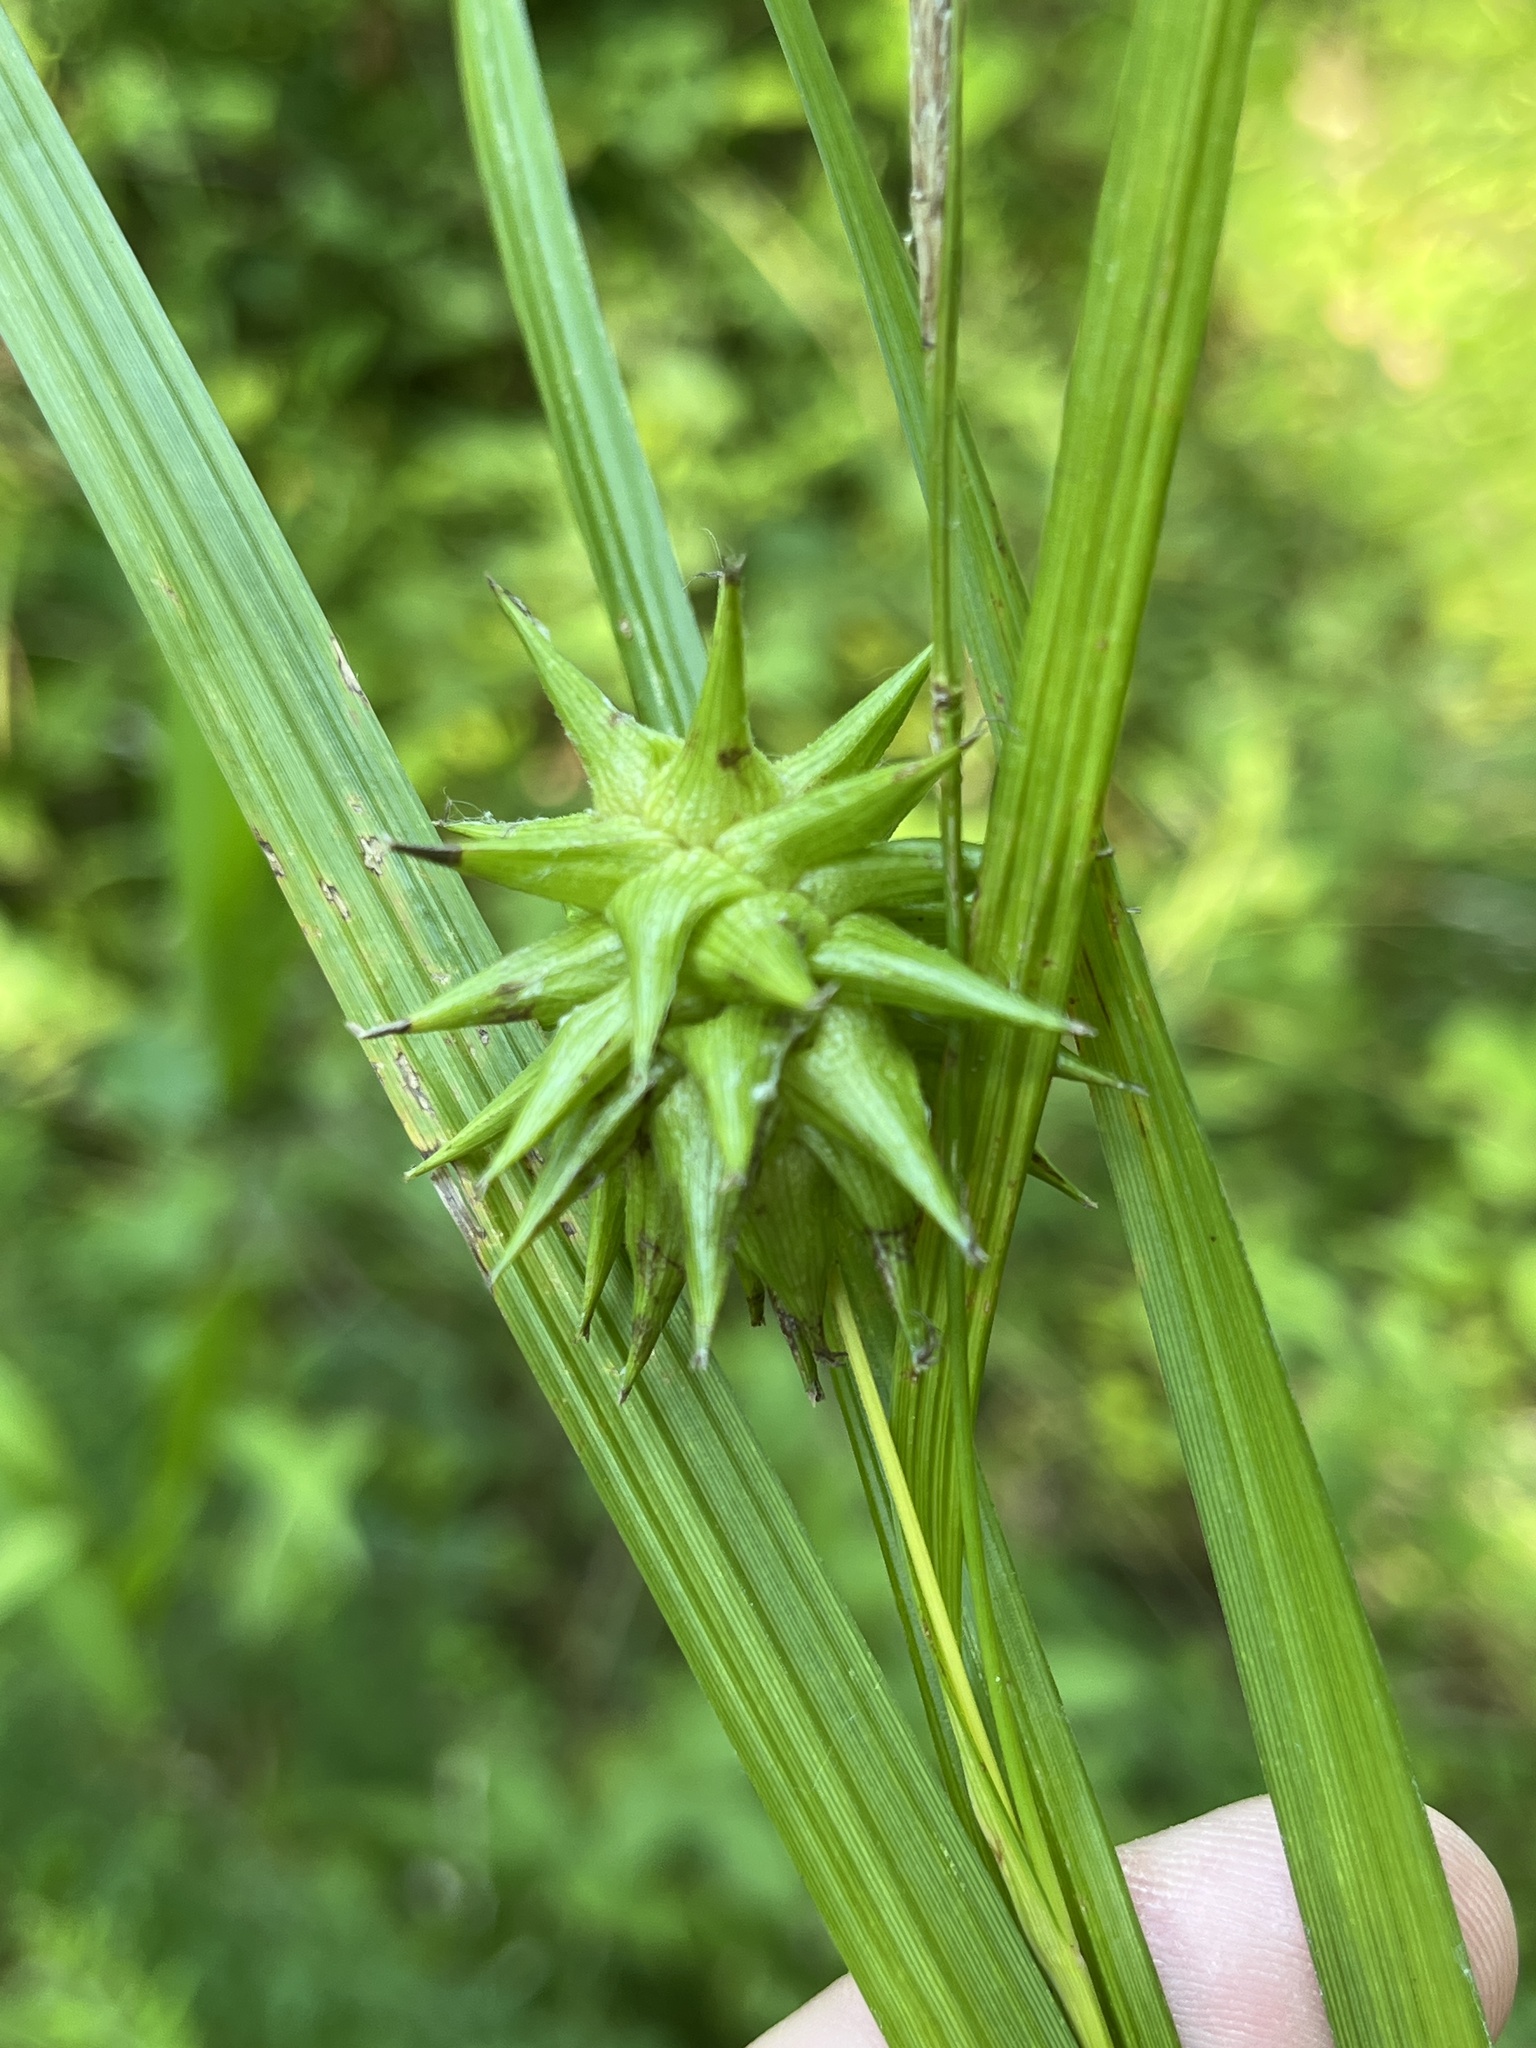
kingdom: Plantae
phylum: Tracheophyta
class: Liliopsida
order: Poales
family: Cyperaceae
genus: Carex
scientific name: Carex grayi
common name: Asa gray's sedge
